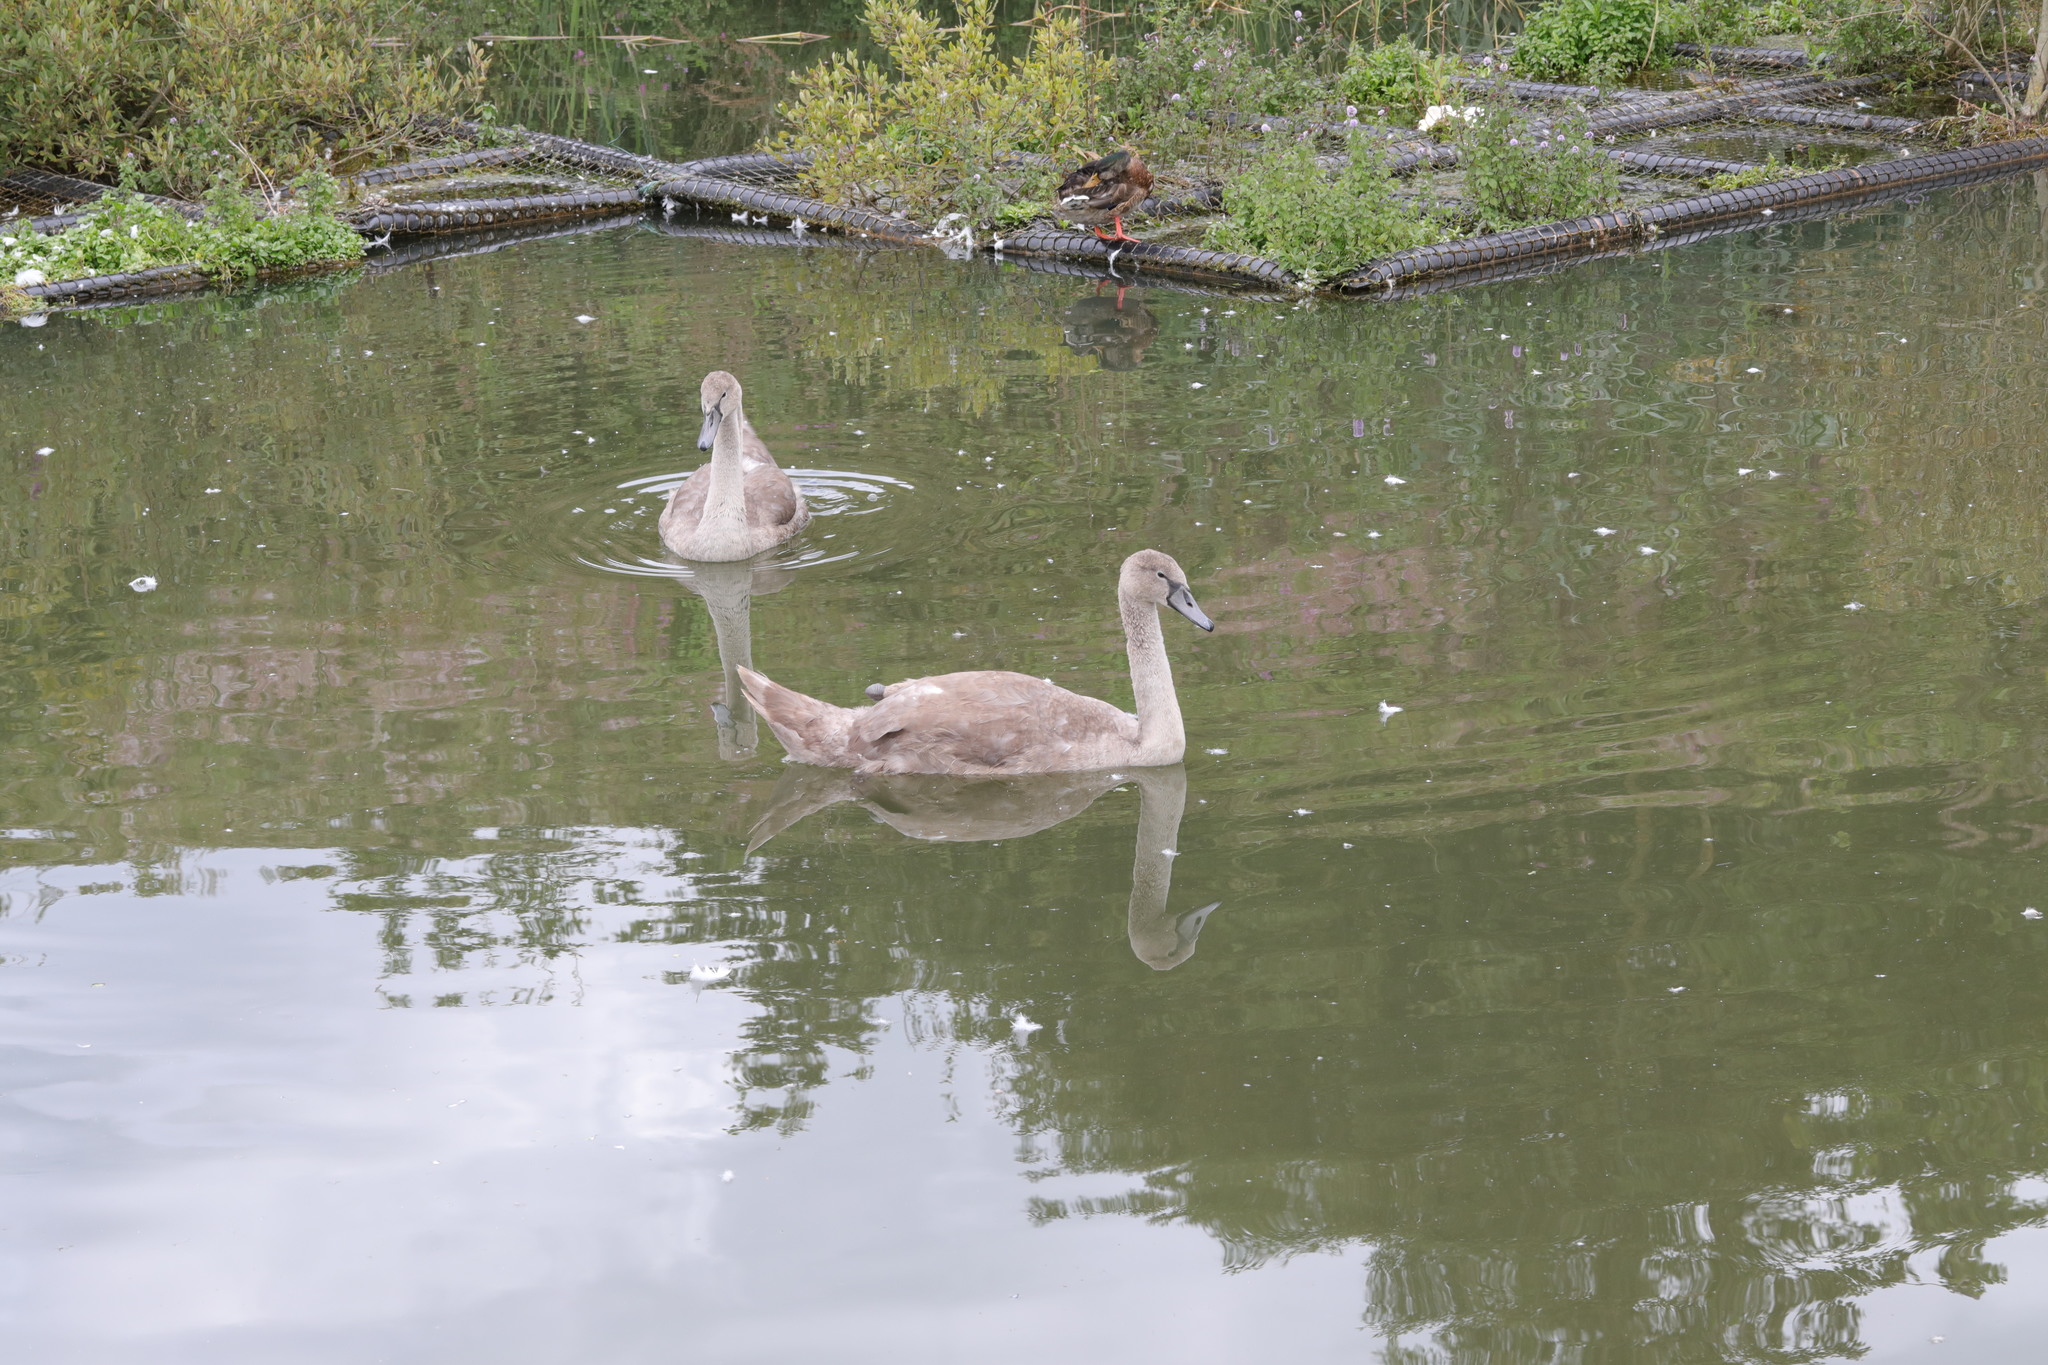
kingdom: Animalia
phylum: Chordata
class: Aves
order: Anseriformes
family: Anatidae
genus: Cygnus
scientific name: Cygnus olor
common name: Mute swan
